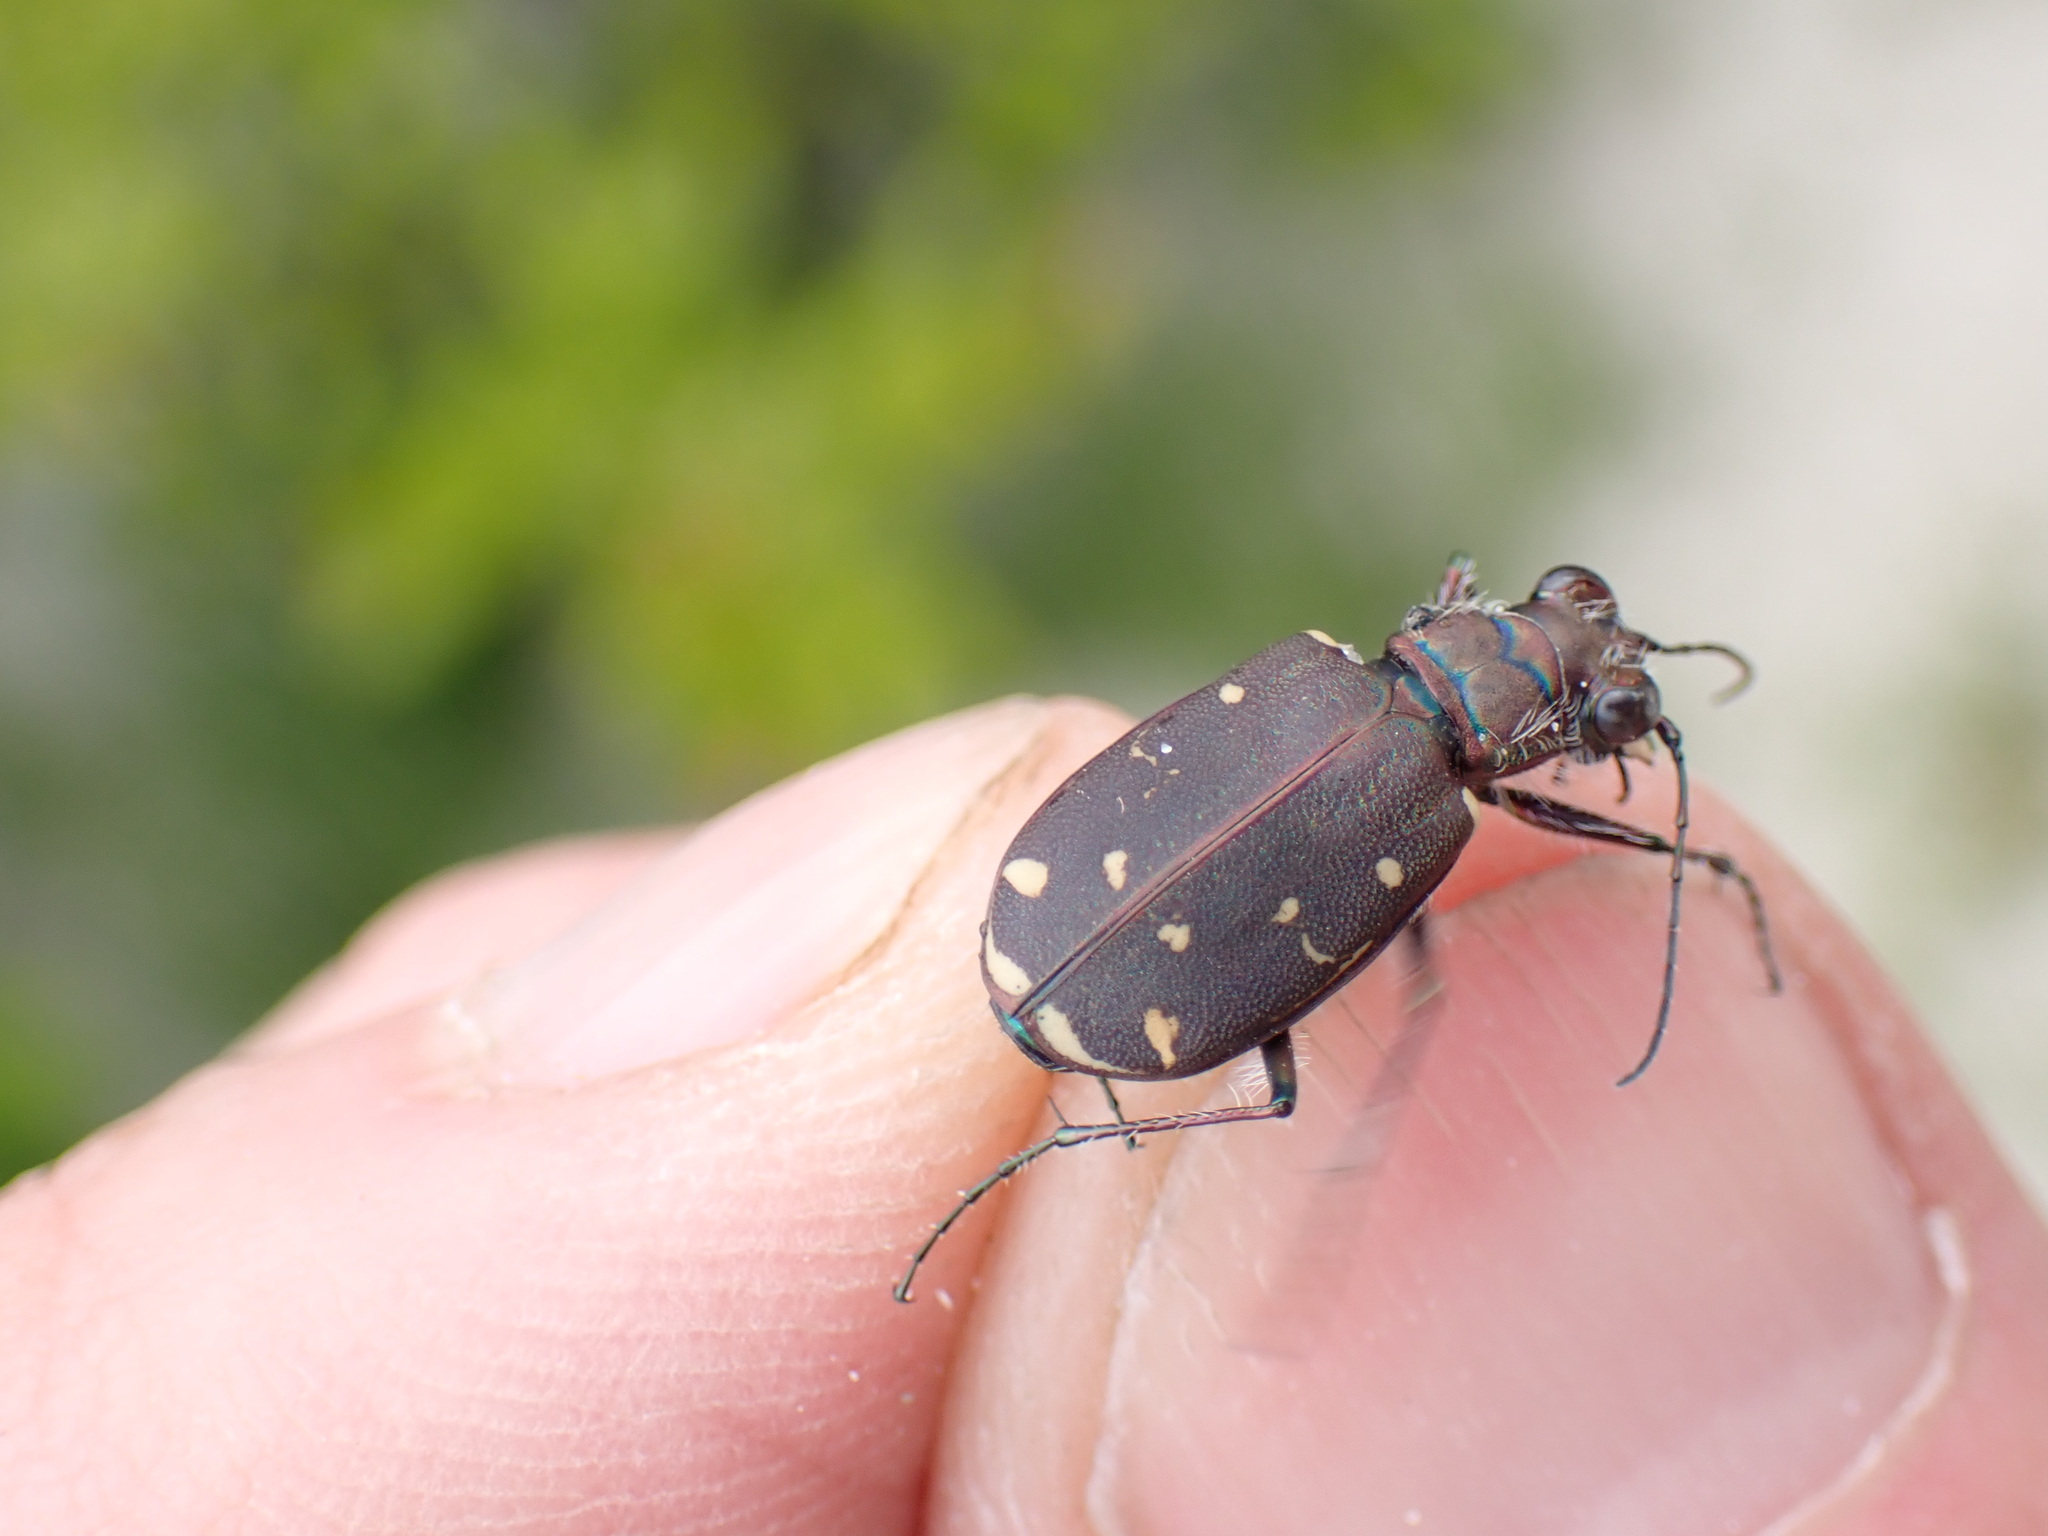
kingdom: Animalia
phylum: Arthropoda
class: Insecta
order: Coleoptera
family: Carabidae
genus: Cicindela
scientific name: Cicindela duodecimguttata
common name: Twelve-spotted tiger beetle
